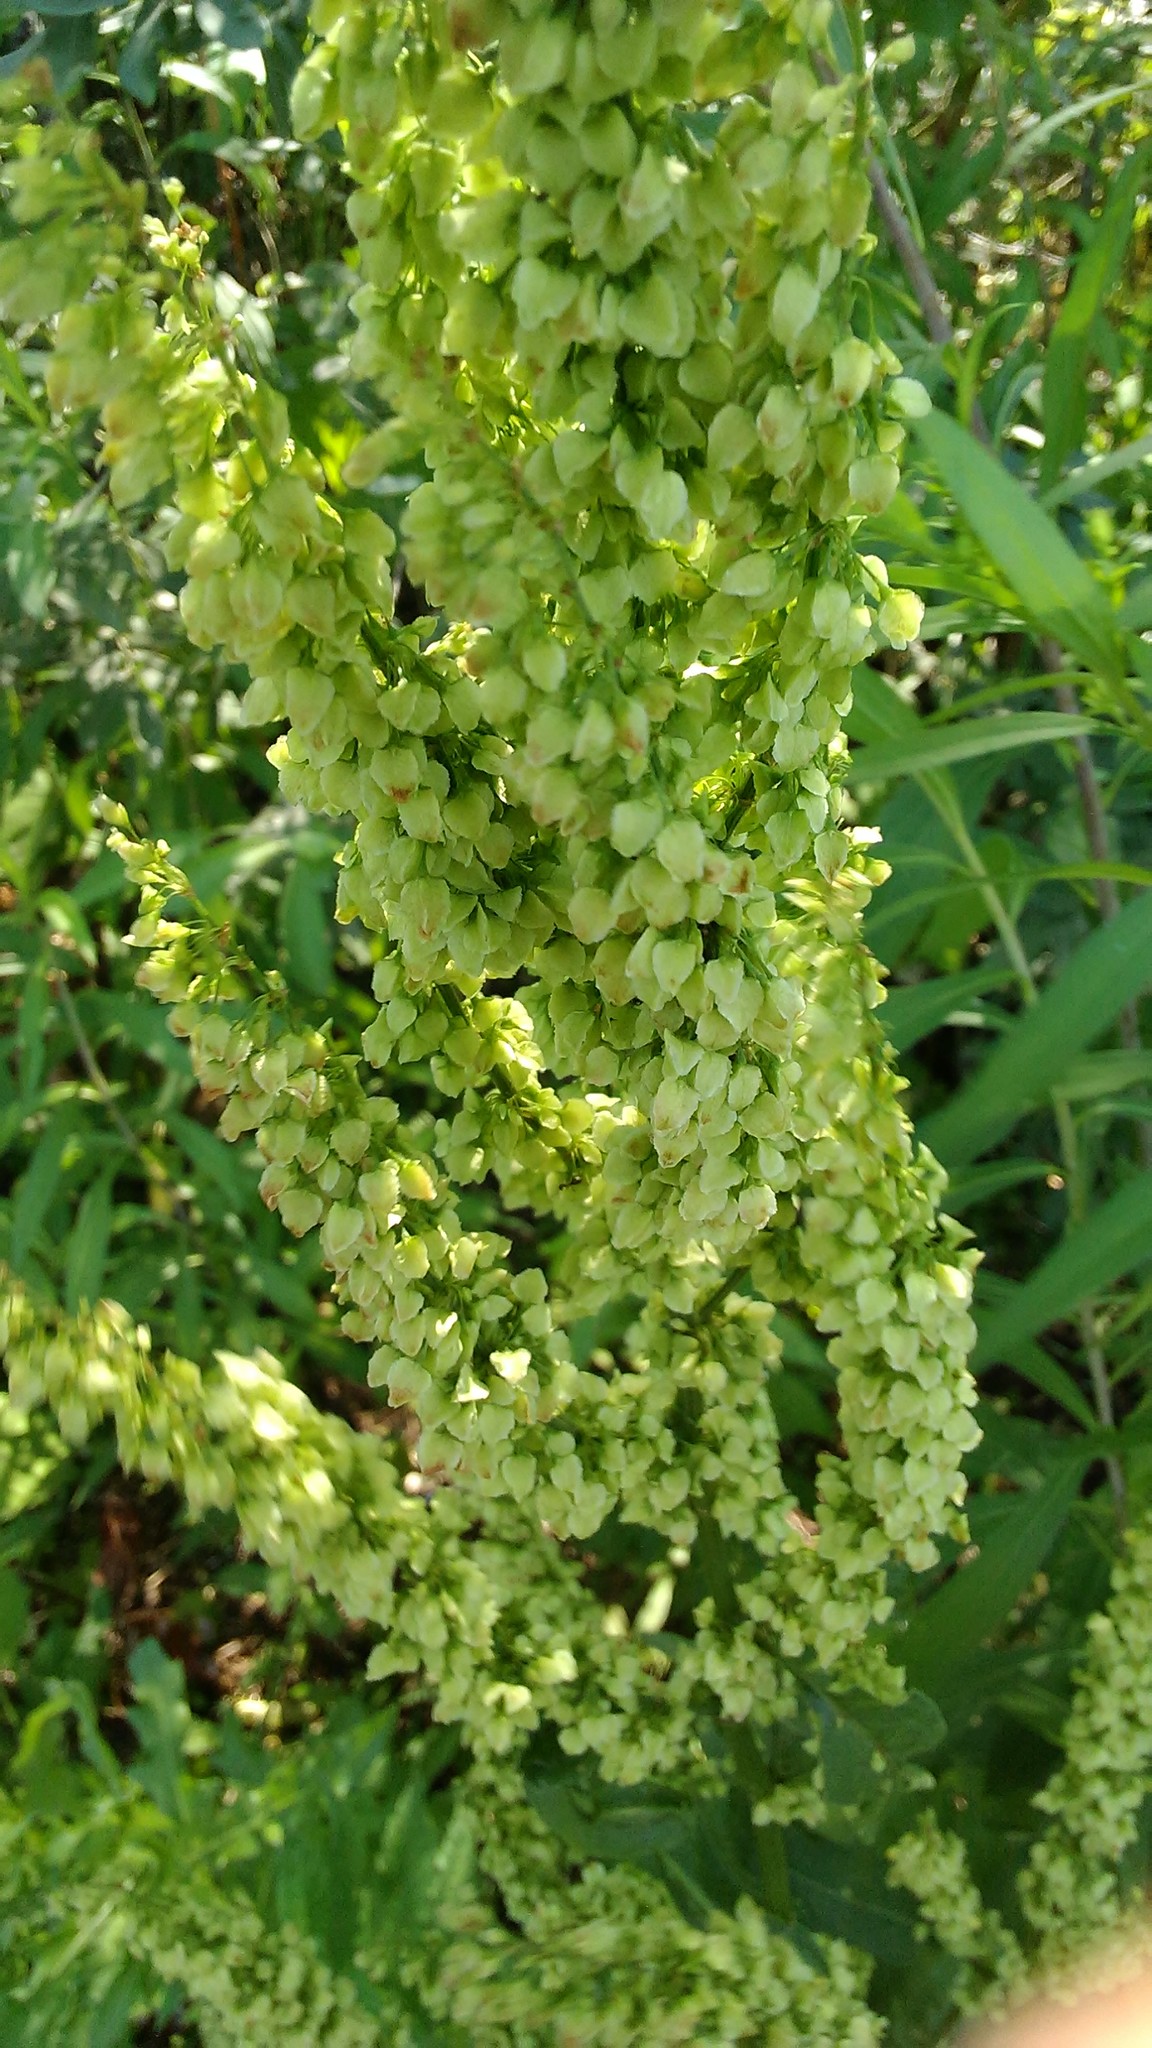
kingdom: Plantae
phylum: Tracheophyta
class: Magnoliopsida
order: Caryophyllales
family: Polygonaceae
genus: Rumex
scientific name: Rumex confertus
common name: Russian dock
